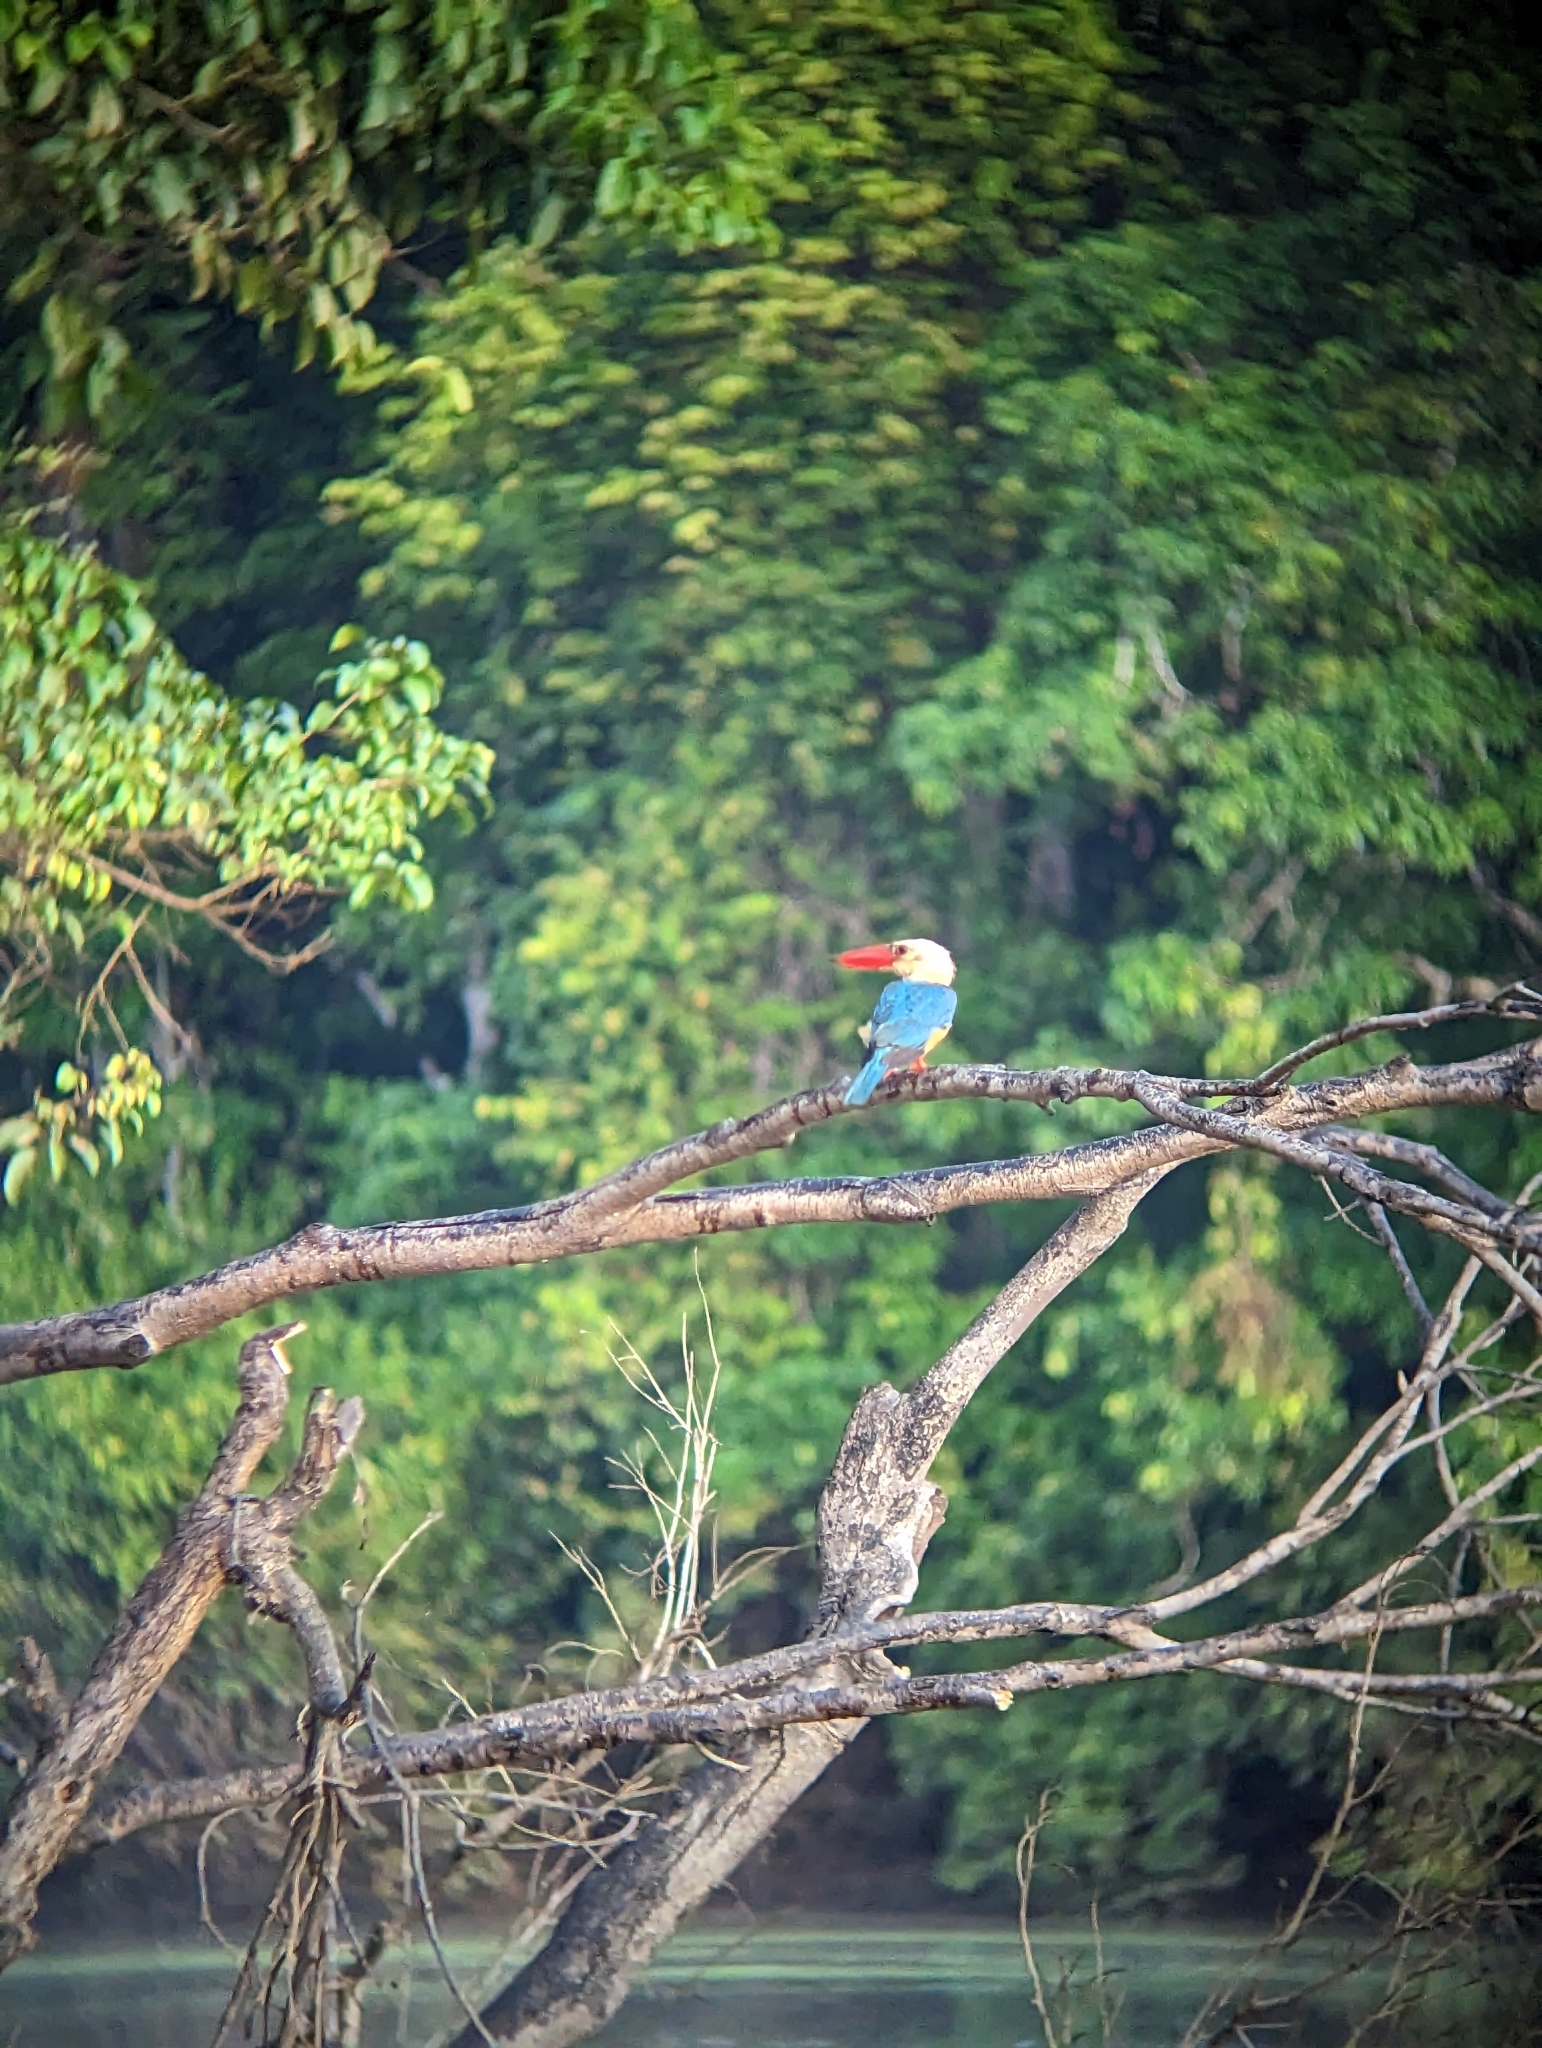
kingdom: Animalia
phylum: Chordata
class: Aves
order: Coraciiformes
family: Alcedinidae
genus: Pelargopsis
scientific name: Pelargopsis capensis
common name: Stork-billed kingfisher
